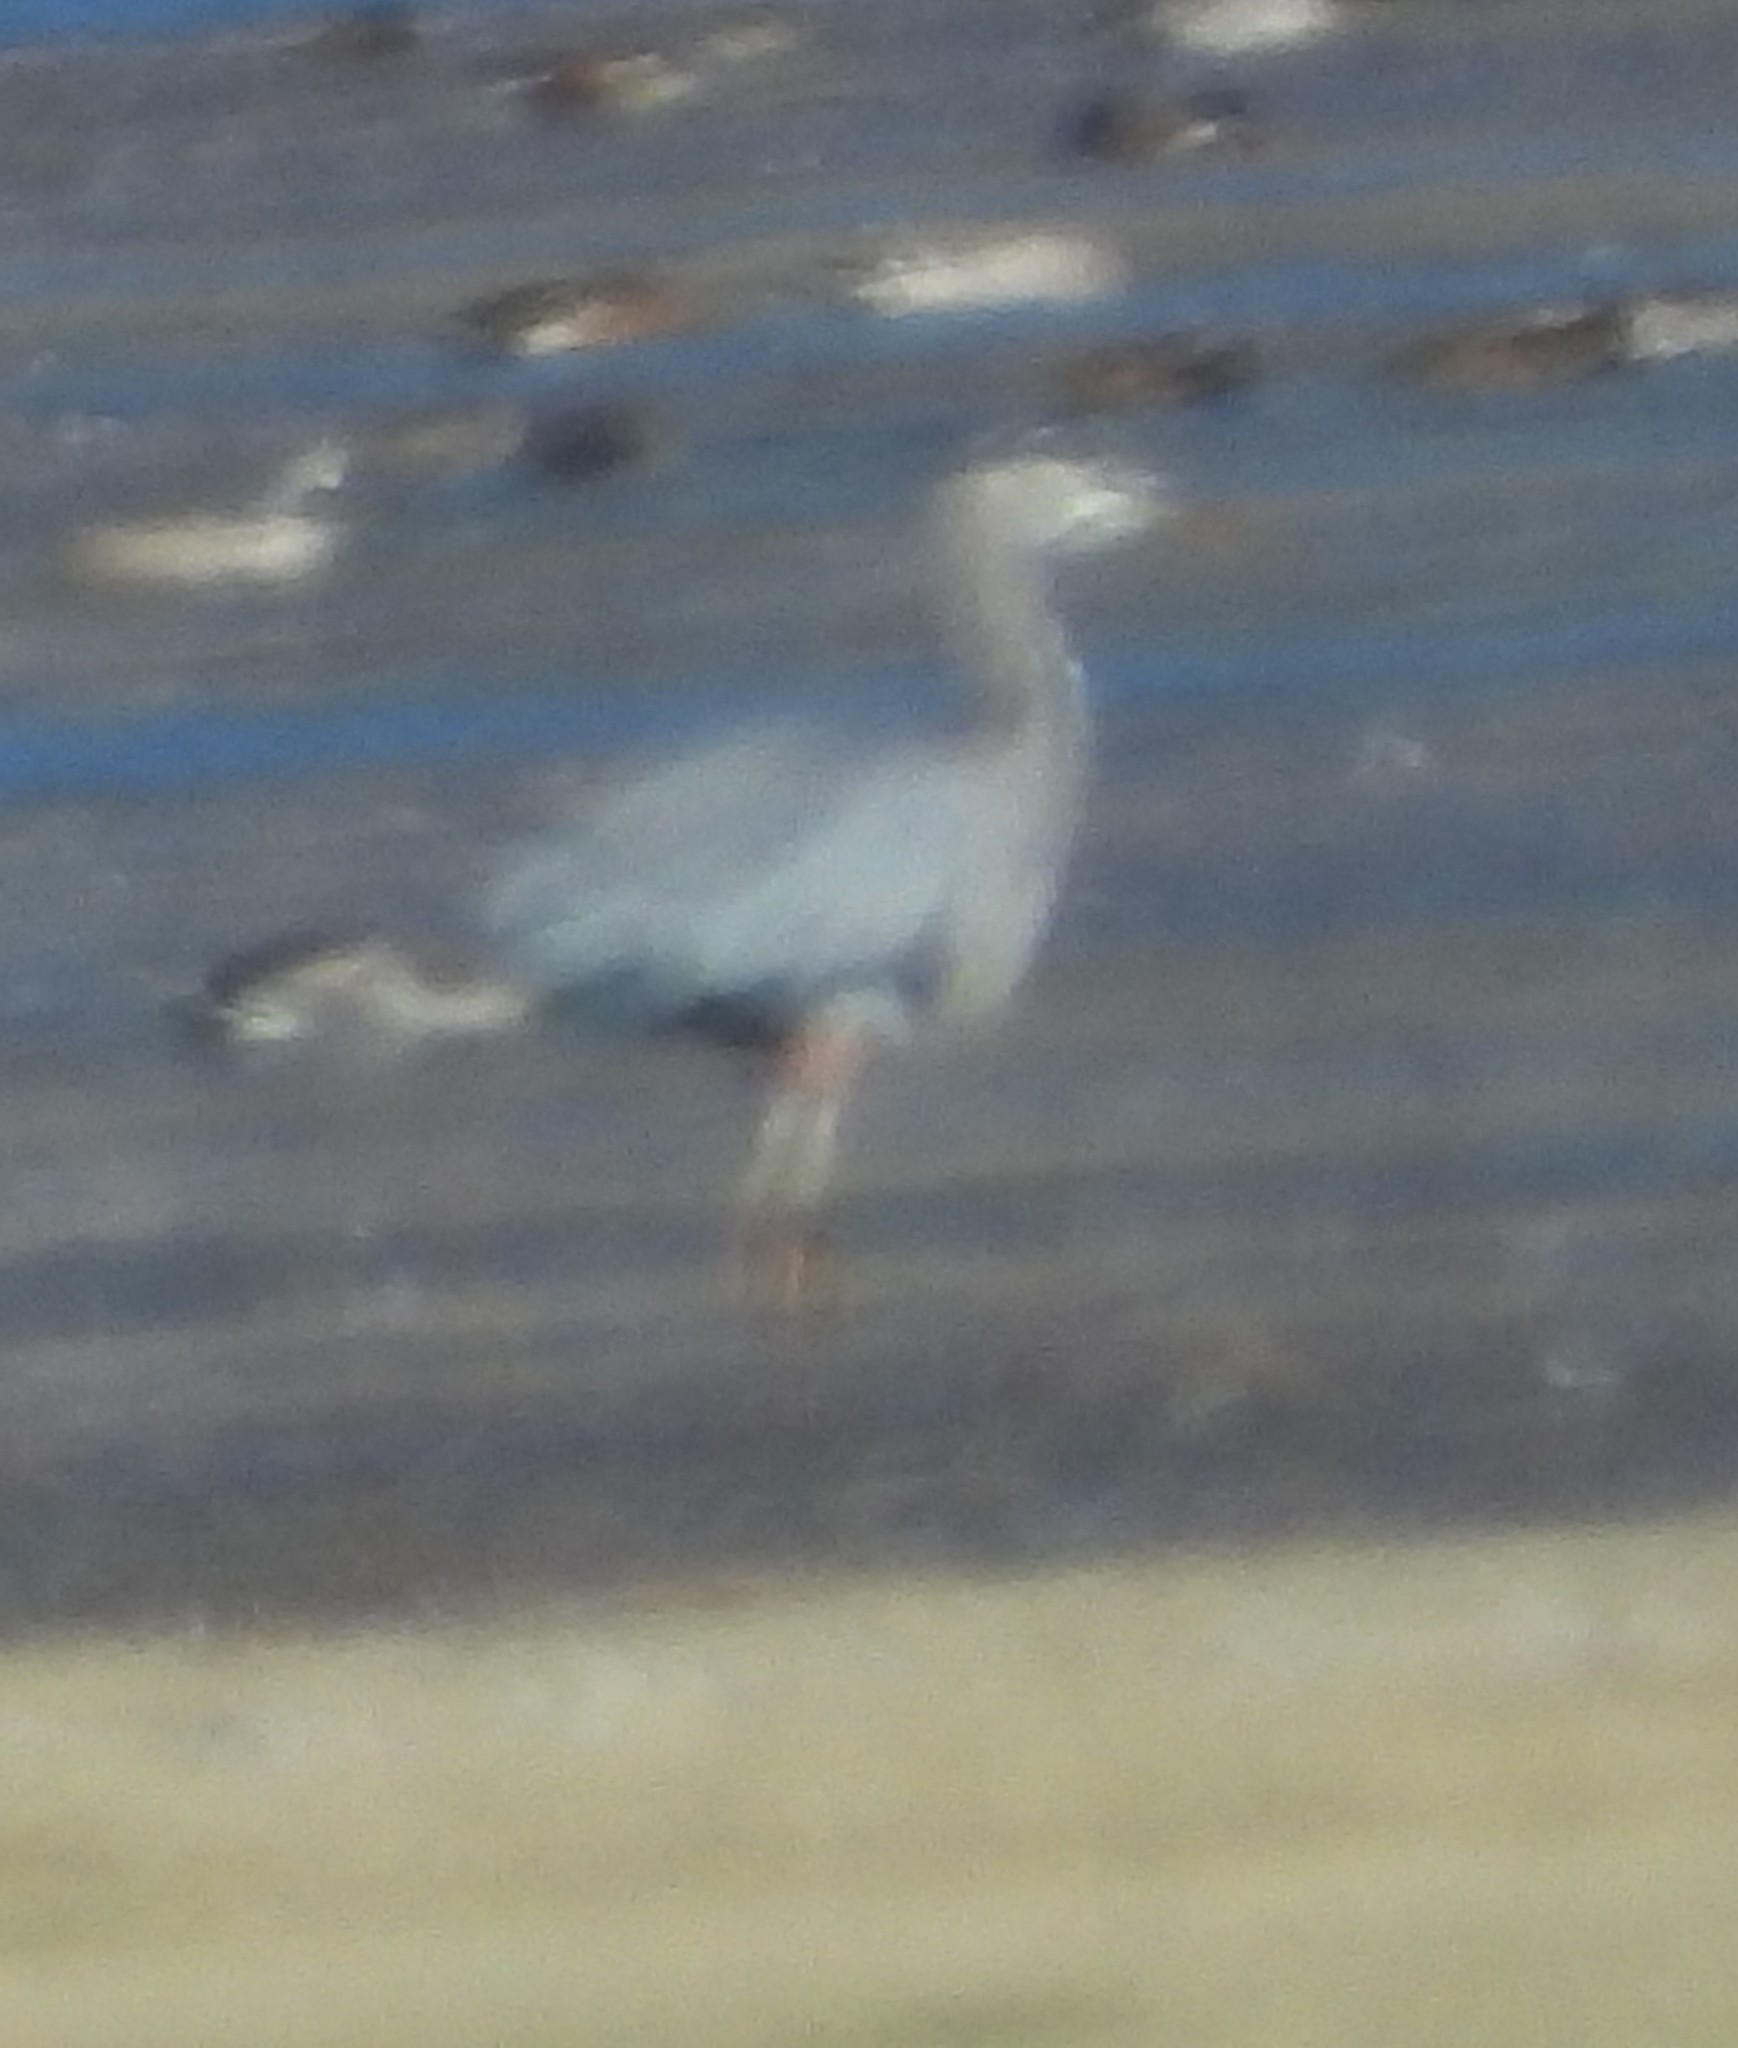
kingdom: Animalia
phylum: Chordata
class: Aves
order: Pelecaniformes
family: Ardeidae
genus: Ardea
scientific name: Ardea herodias
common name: Great blue heron
